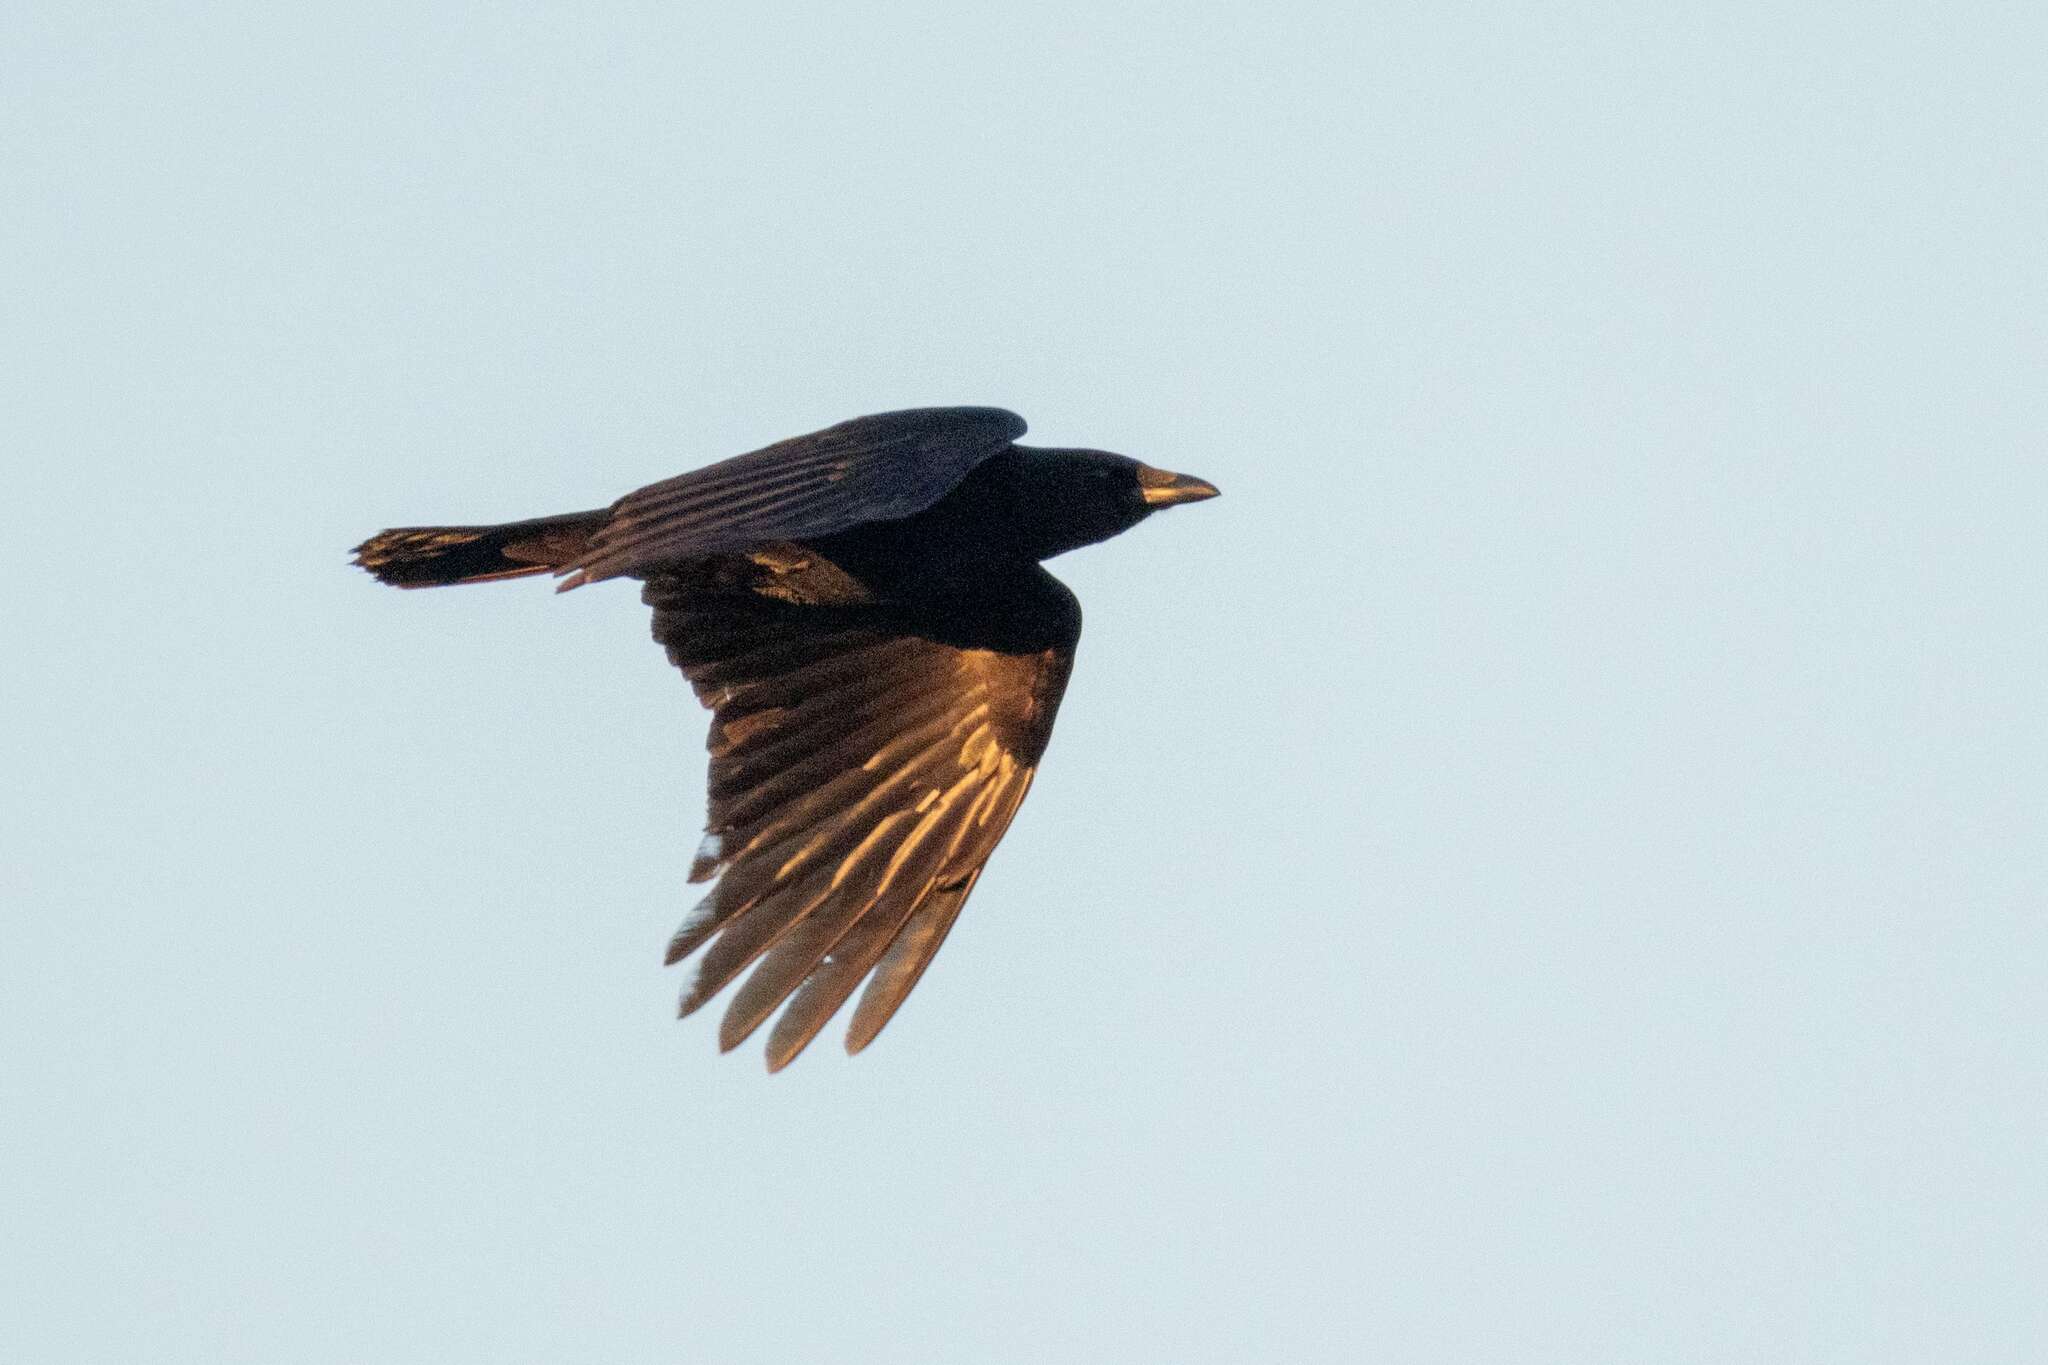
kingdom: Animalia
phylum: Chordata
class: Aves
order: Passeriformes
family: Corvidae
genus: Corvus
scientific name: Corvus corone
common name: Carrion crow
